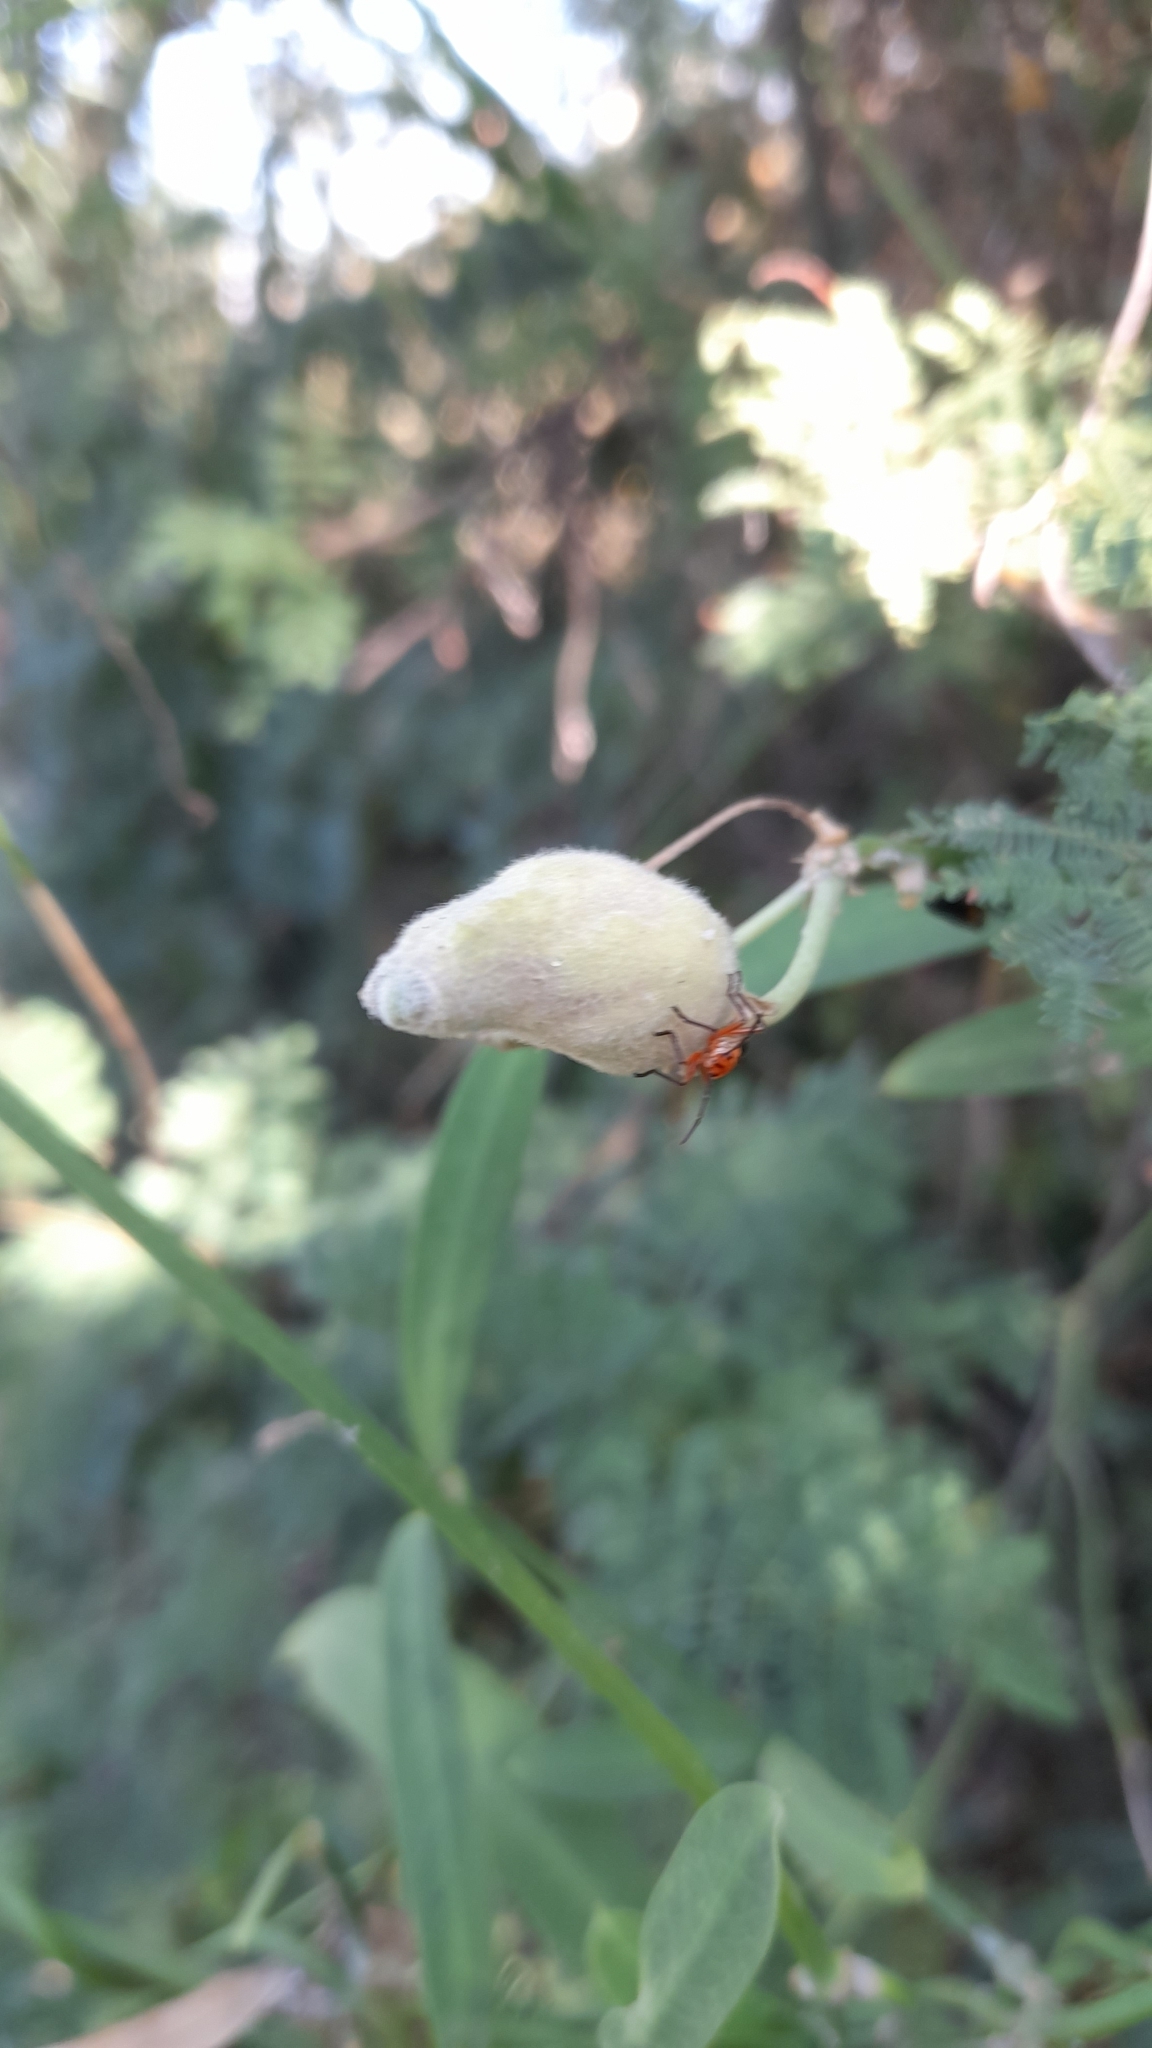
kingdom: Animalia
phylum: Arthropoda
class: Insecta
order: Hemiptera
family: Lygaeidae
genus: Oncopeltus
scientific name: Oncopeltus luctuosus
